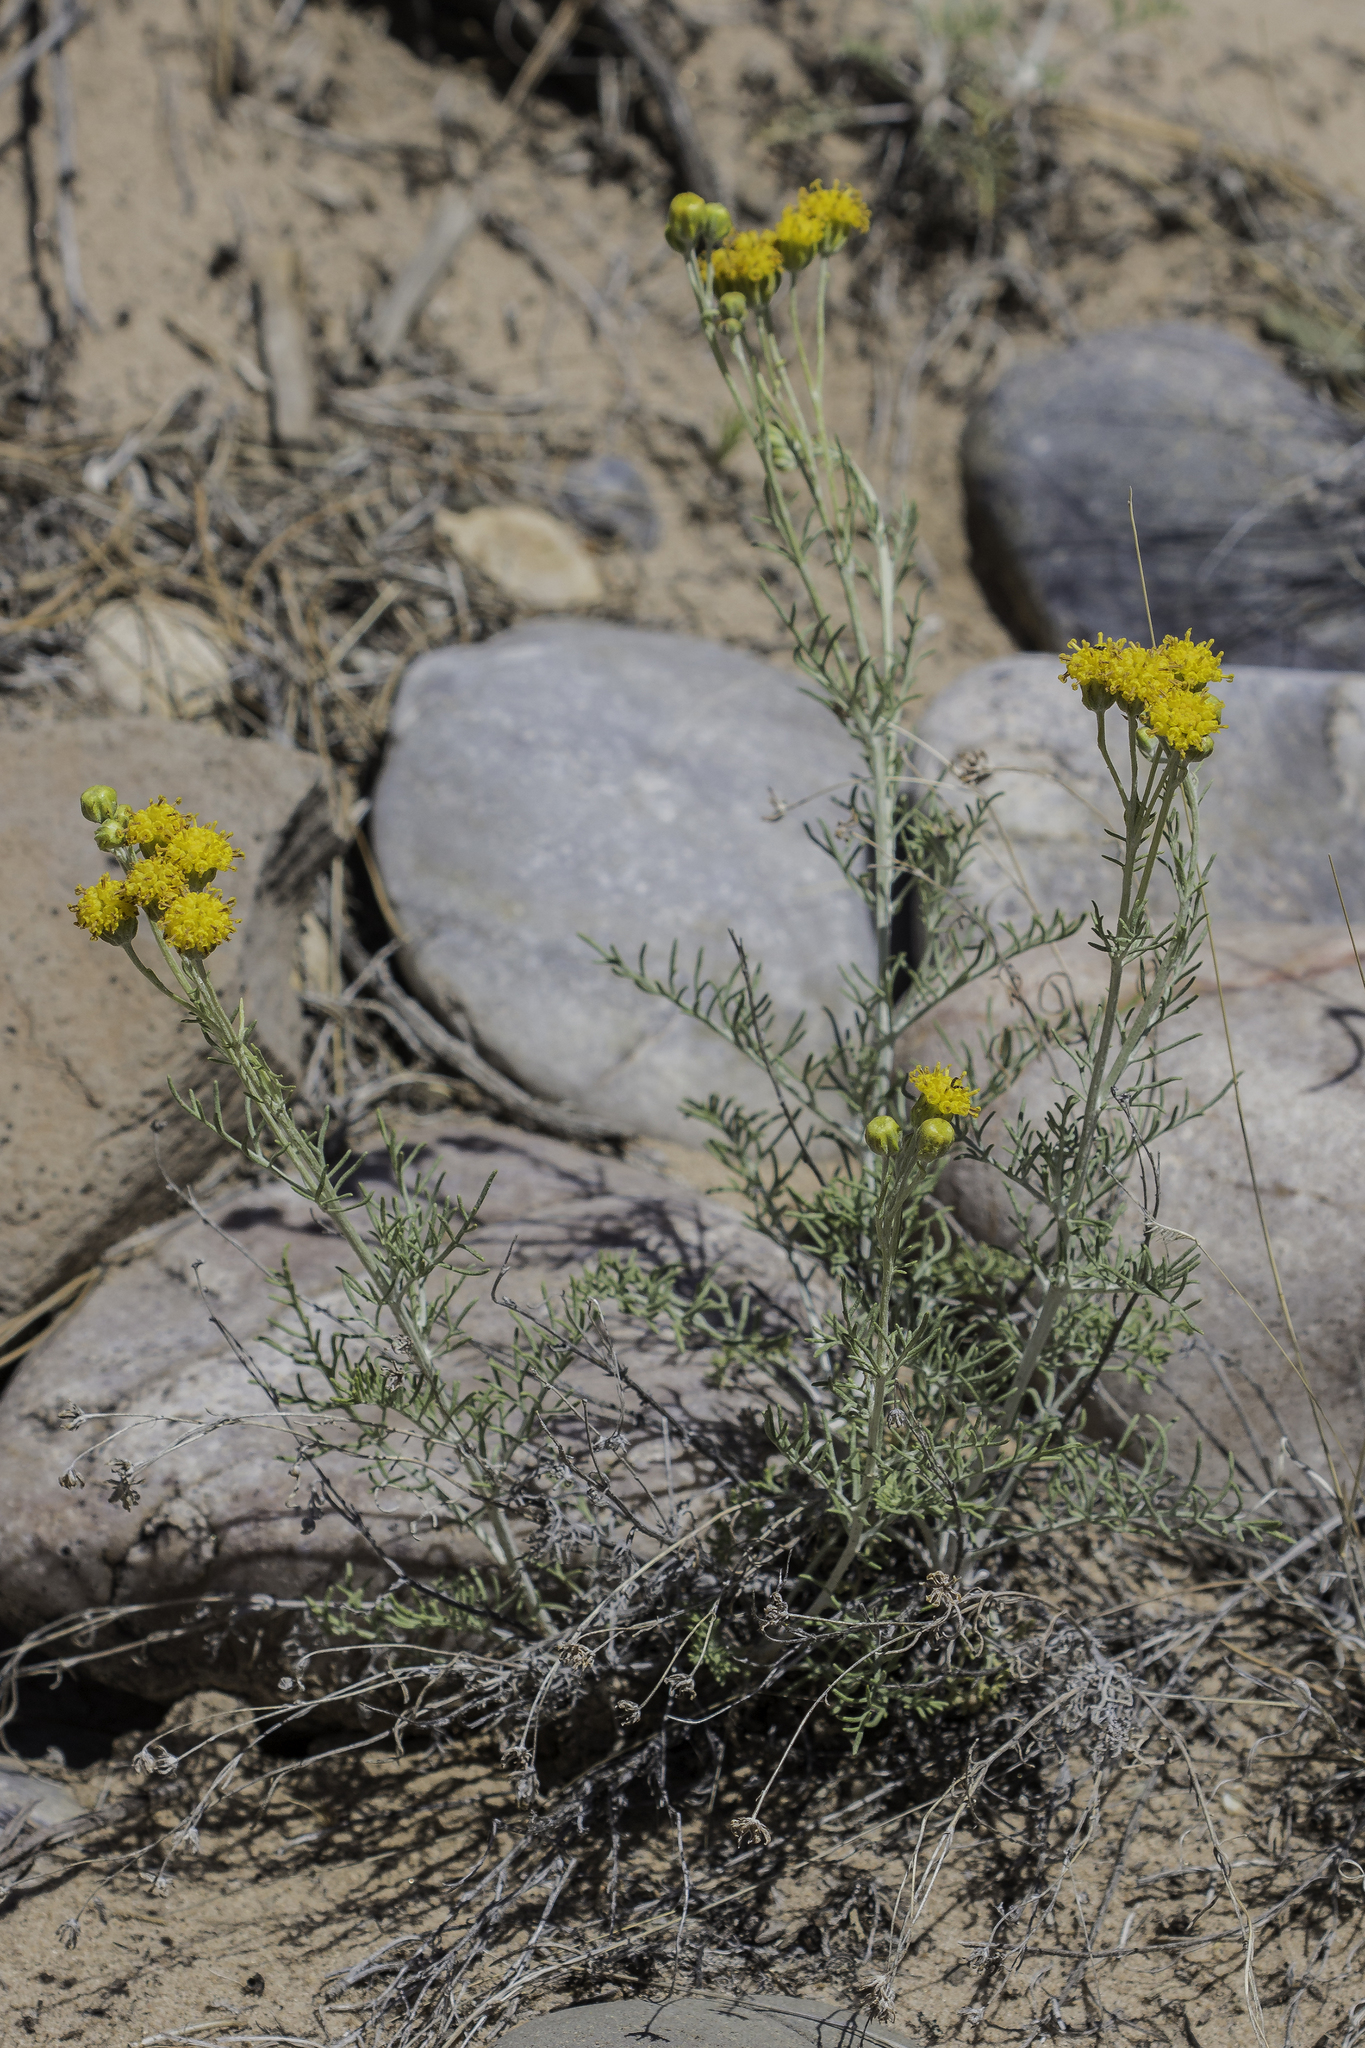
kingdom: Plantae
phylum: Tracheophyta
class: Magnoliopsida
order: Asterales
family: Asteraceae
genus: Hymenopappus
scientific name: Hymenopappus flavescens
